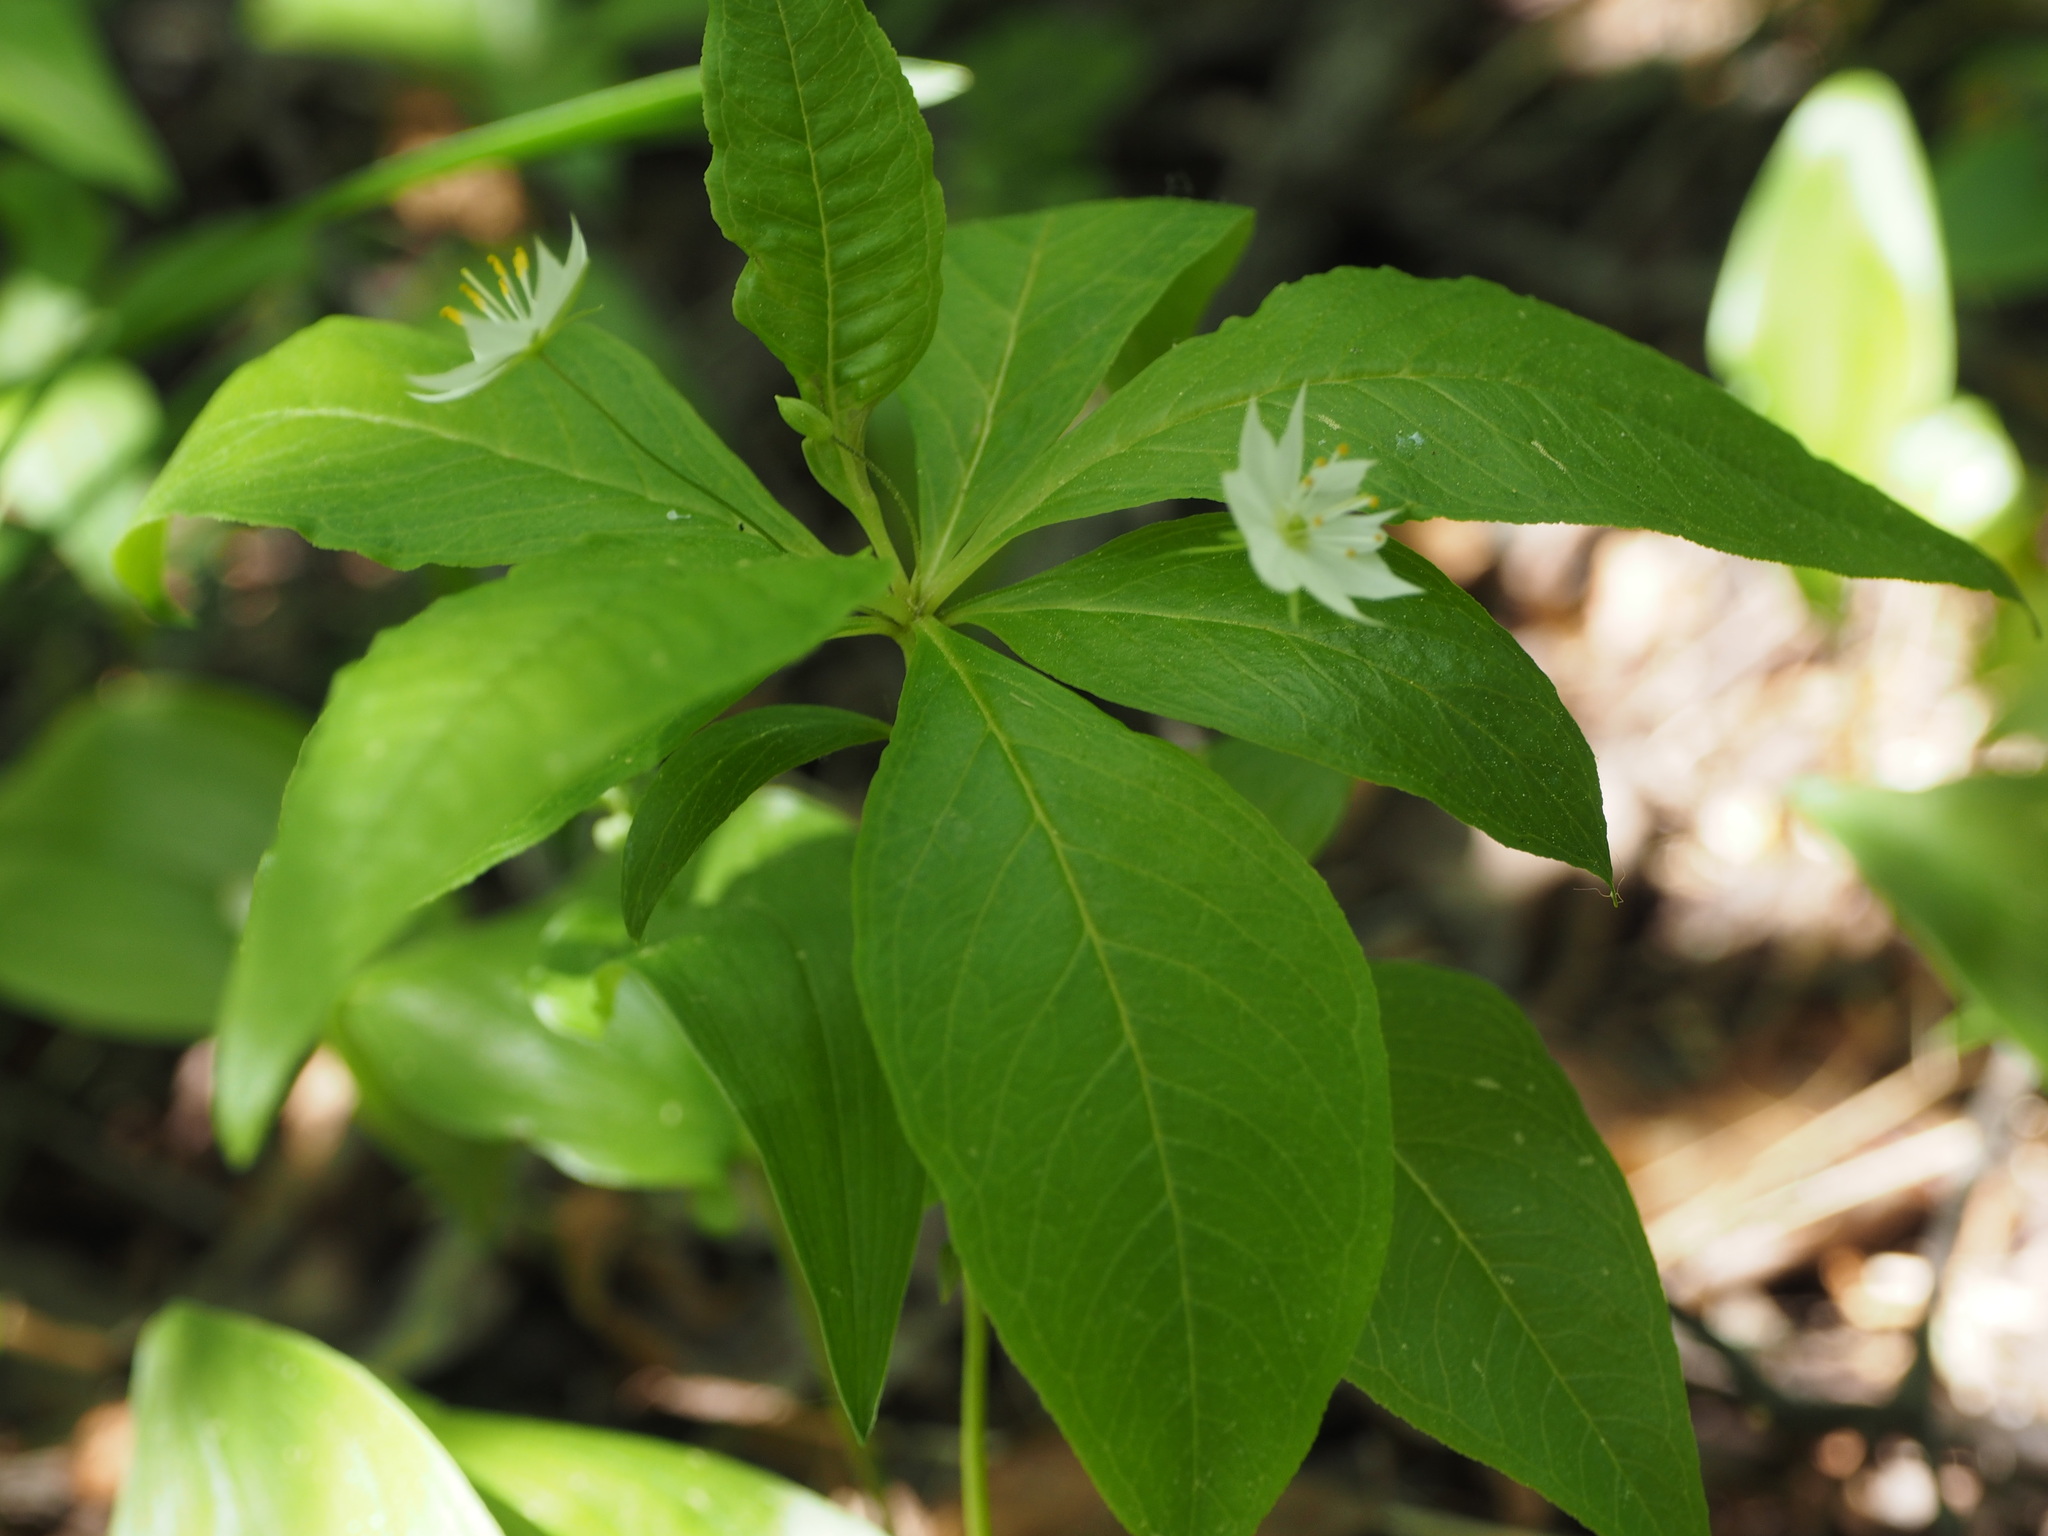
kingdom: Plantae
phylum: Tracheophyta
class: Magnoliopsida
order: Ericales
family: Primulaceae
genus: Lysimachia
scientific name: Lysimachia borealis
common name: American starflower
